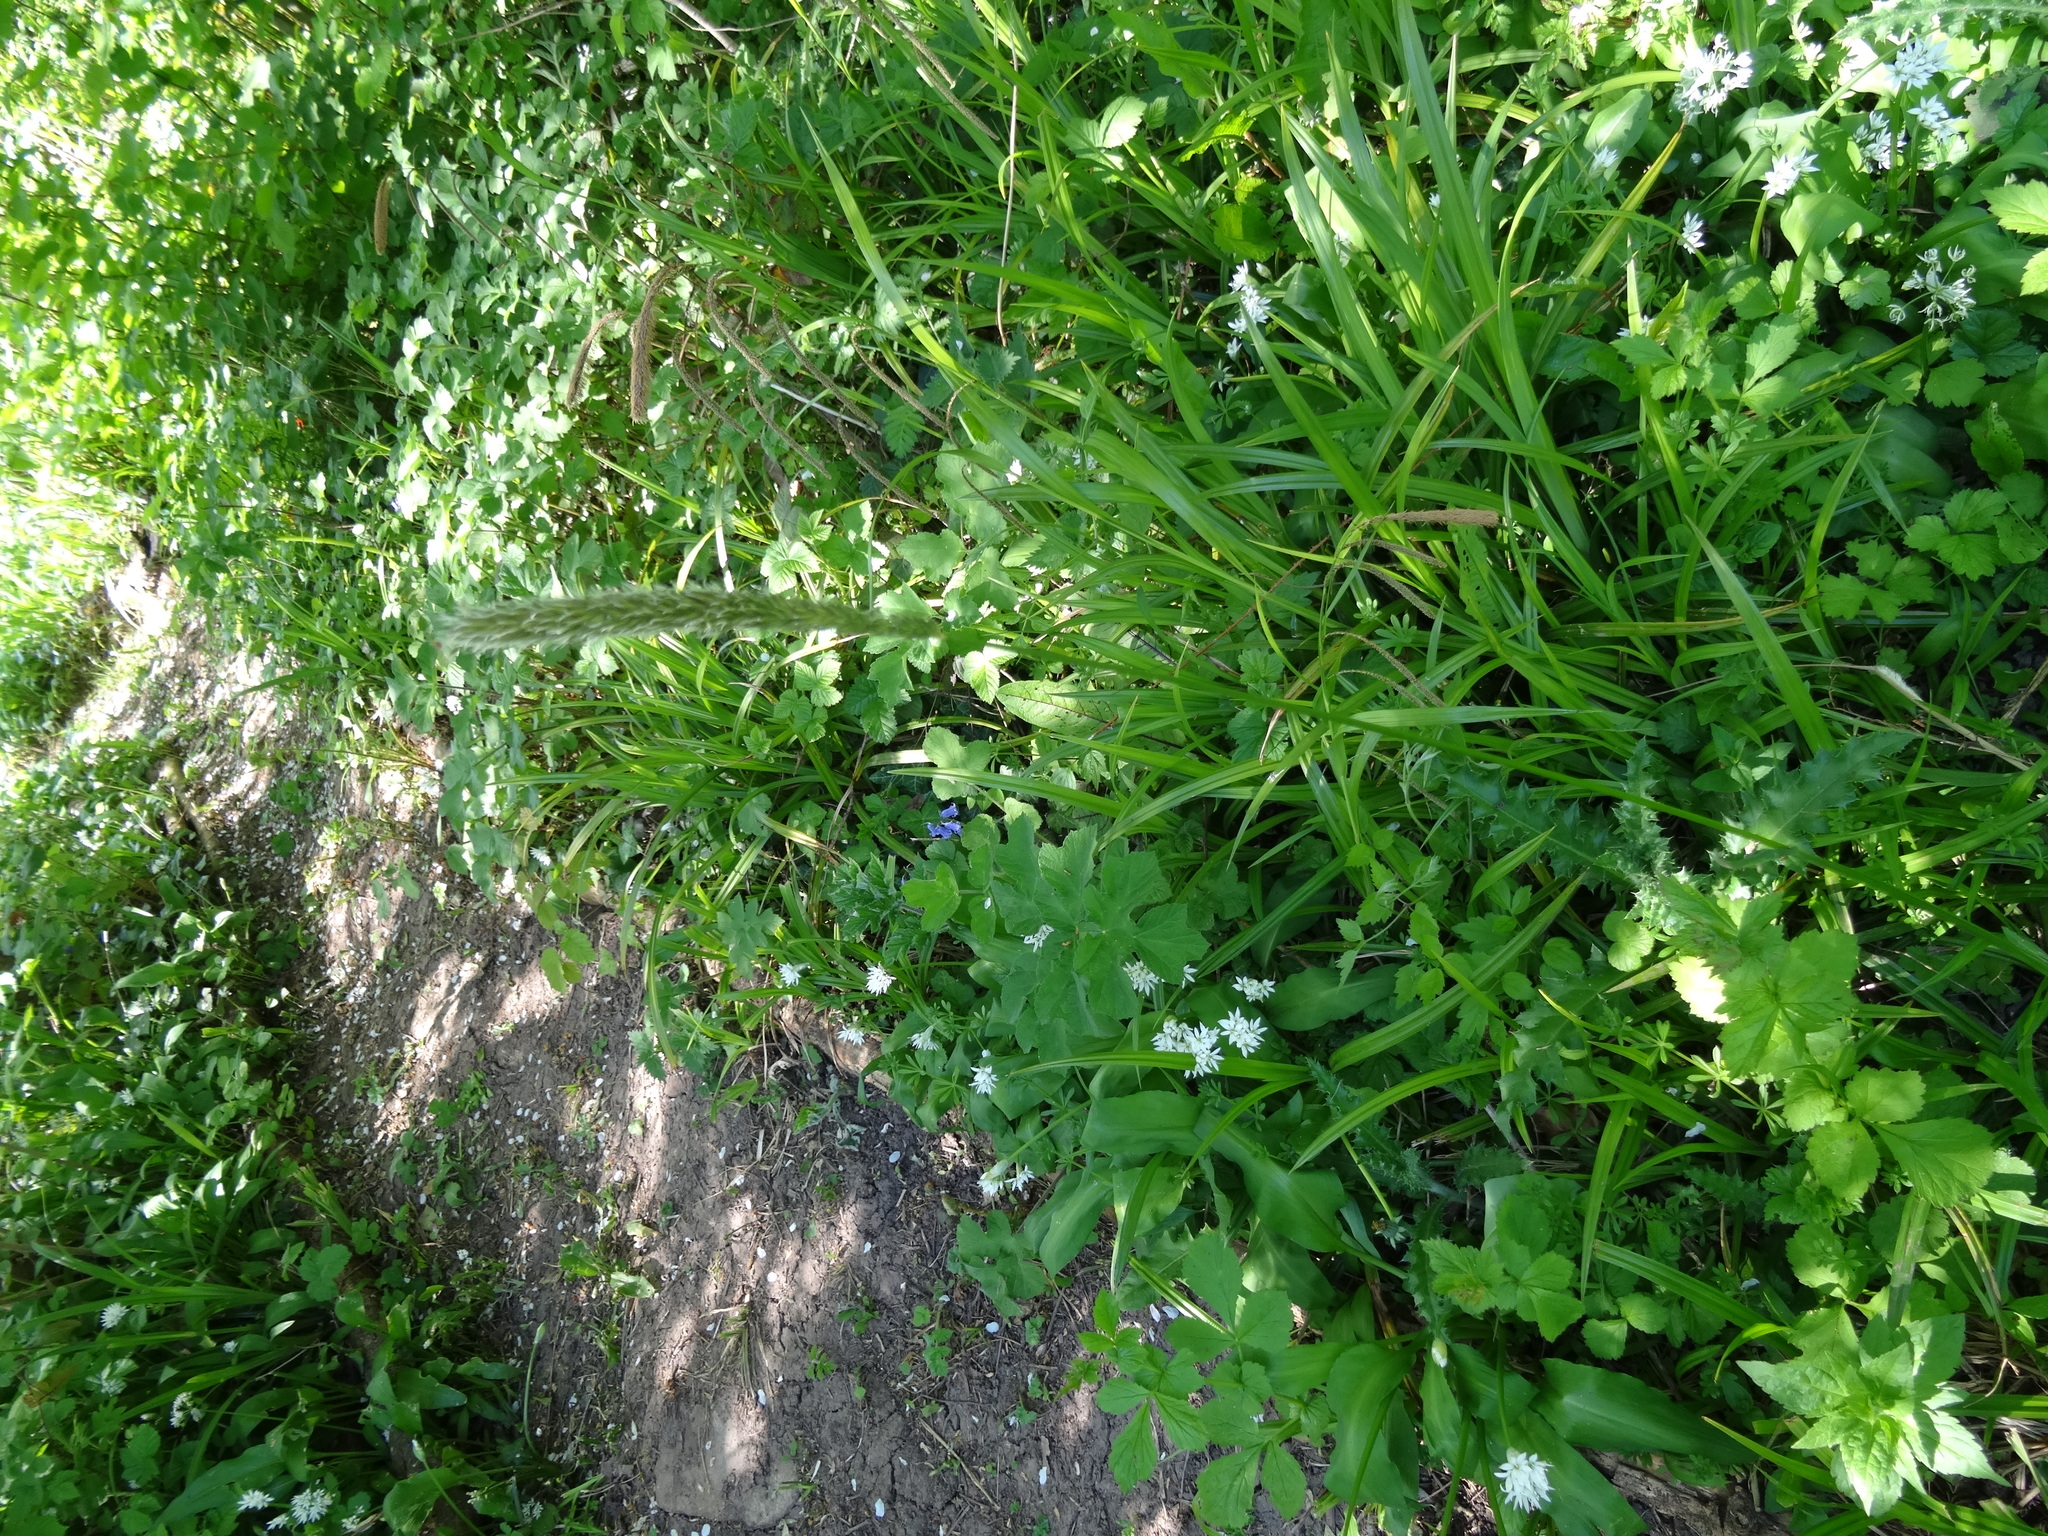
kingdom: Plantae
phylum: Tracheophyta
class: Liliopsida
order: Poales
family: Poaceae
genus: Alopecurus
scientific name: Alopecurus pratensis
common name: Meadow foxtail
